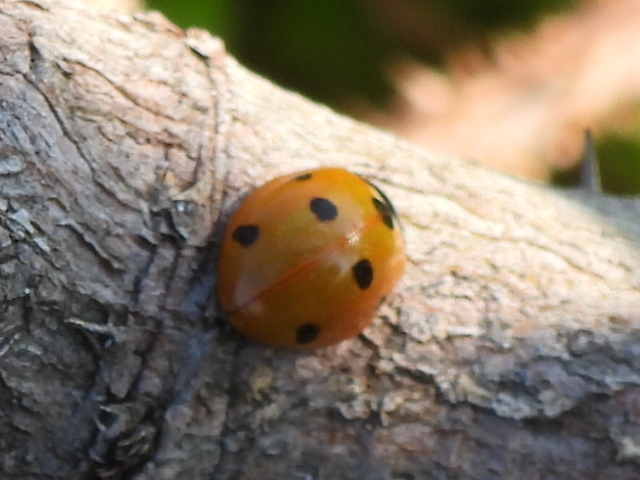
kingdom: Animalia
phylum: Arthropoda
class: Insecta
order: Coleoptera
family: Coccinellidae
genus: Coccinella
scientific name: Coccinella septempunctata
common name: Sevenspotted lady beetle
